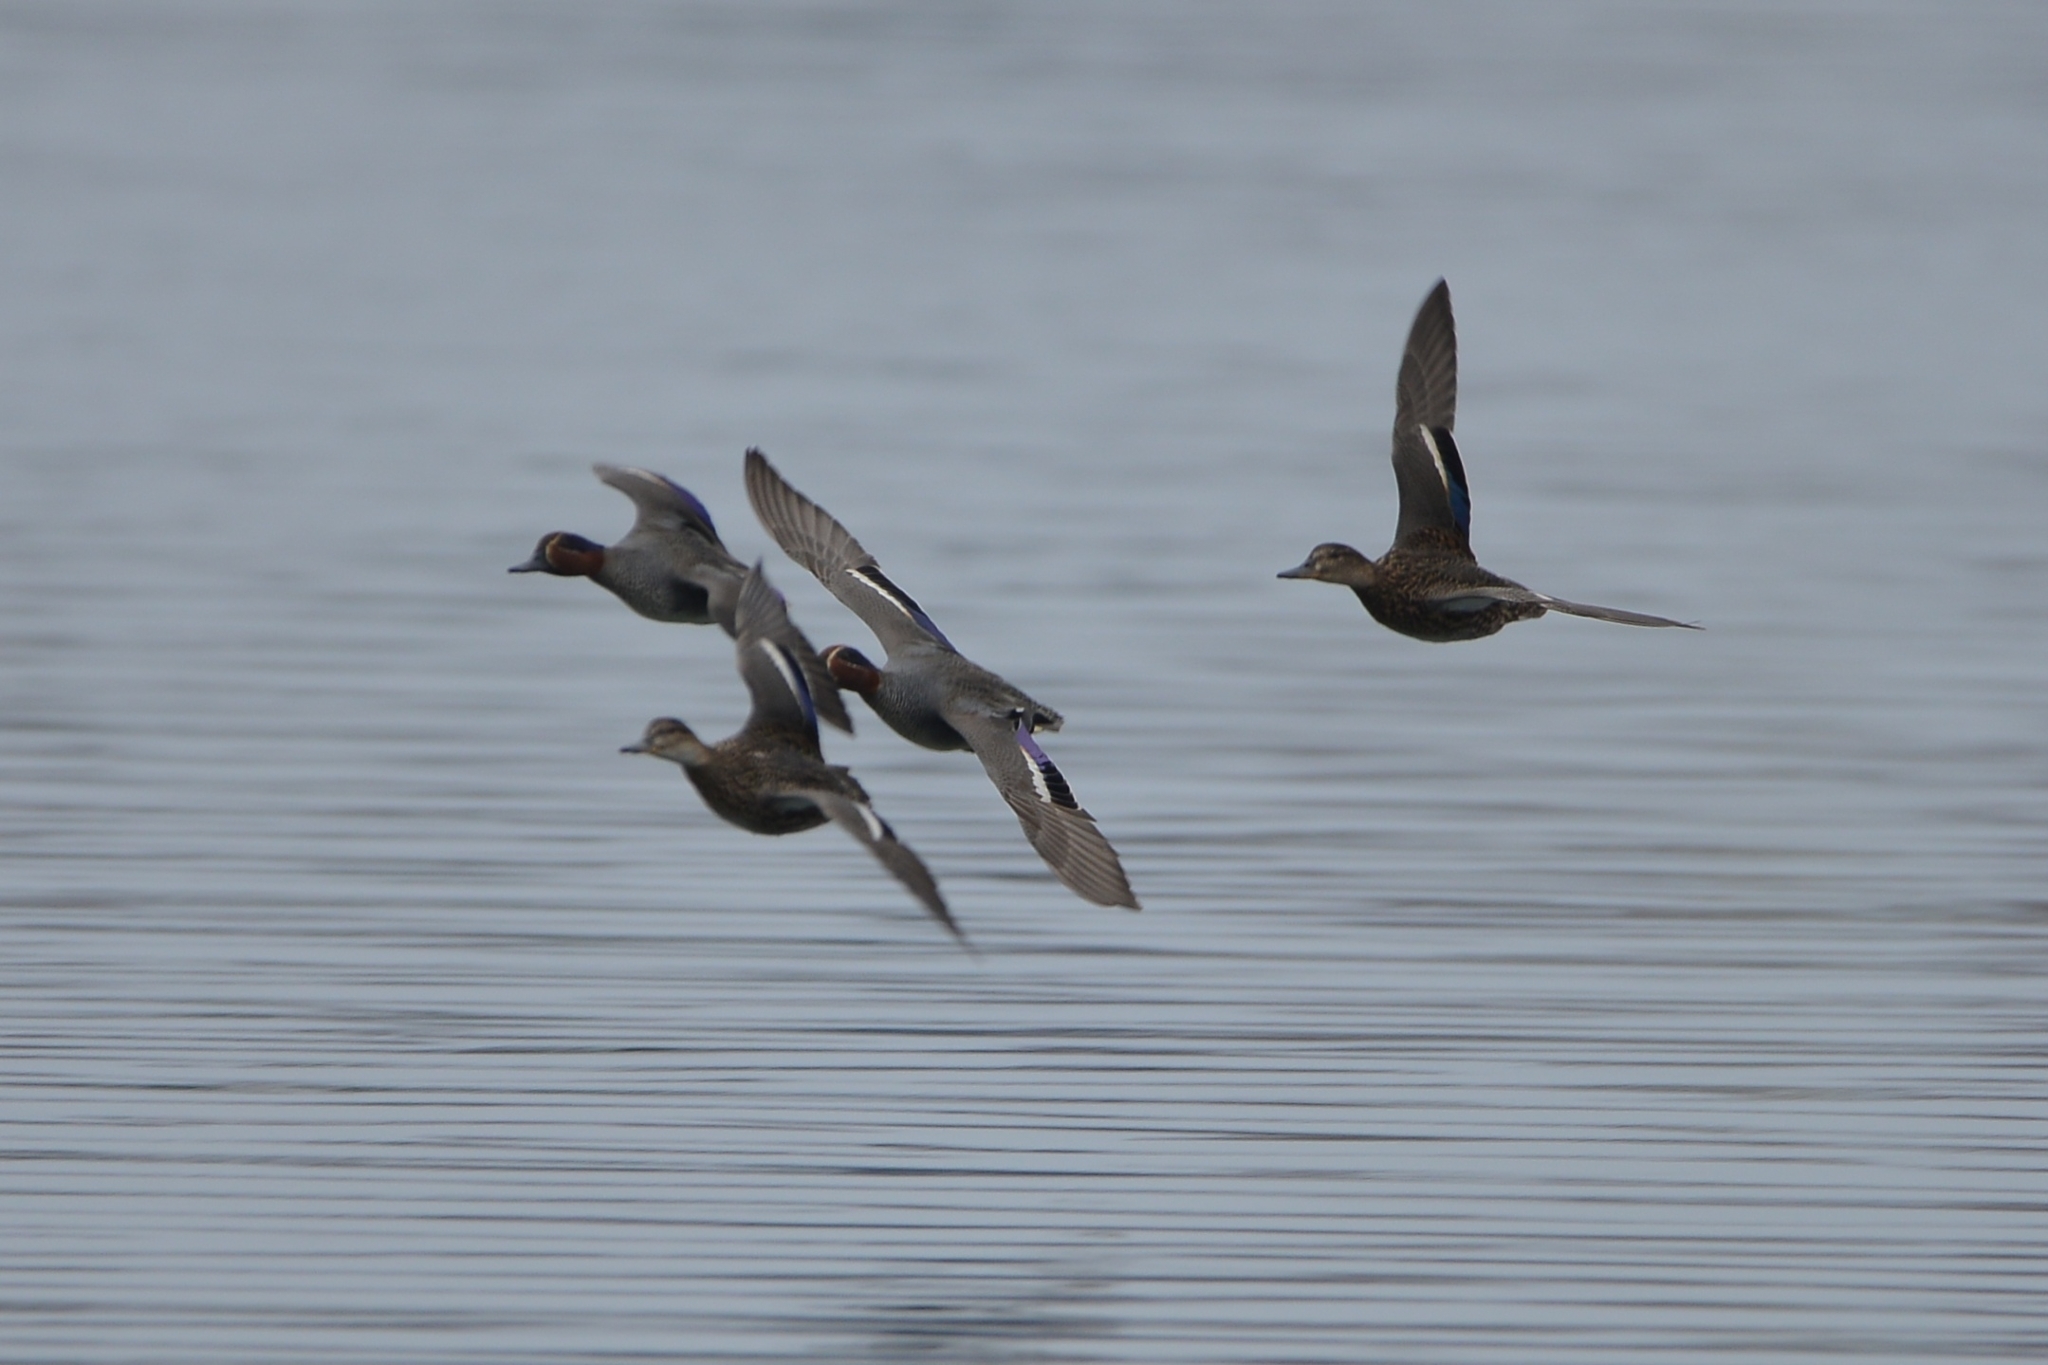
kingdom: Animalia
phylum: Chordata
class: Aves
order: Anseriformes
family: Anatidae
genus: Anas
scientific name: Anas crecca
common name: Eurasian teal
